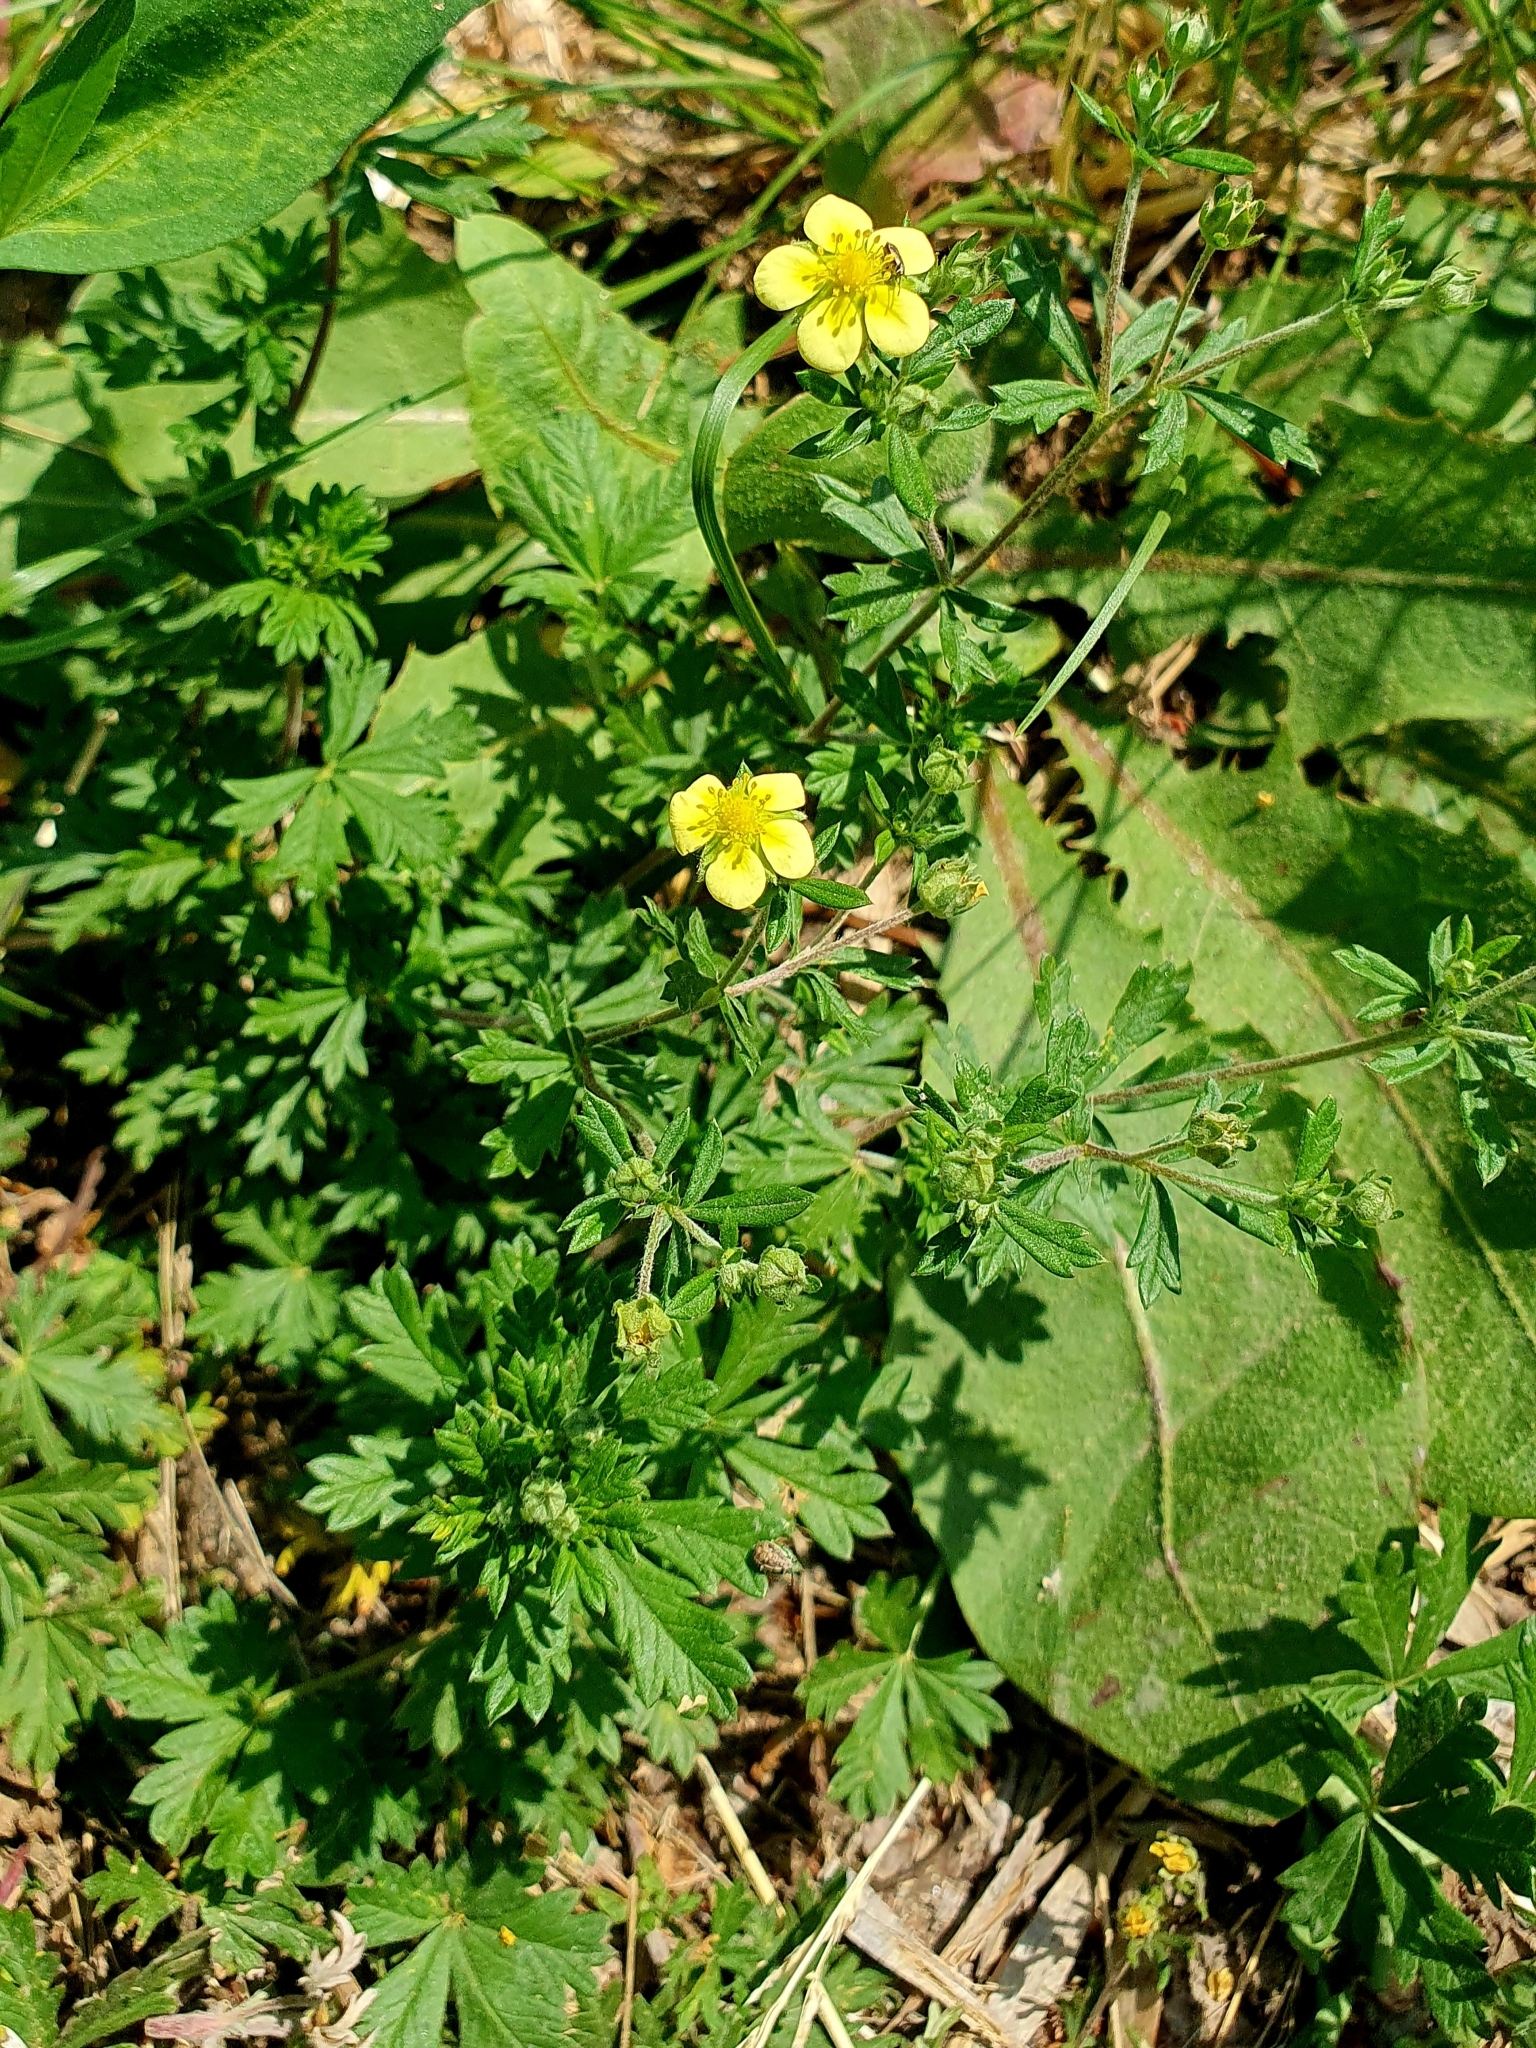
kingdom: Plantae
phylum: Tracheophyta
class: Magnoliopsida
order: Rosales
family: Rosaceae
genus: Potentilla
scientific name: Potentilla argentea
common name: Hoary cinquefoil
